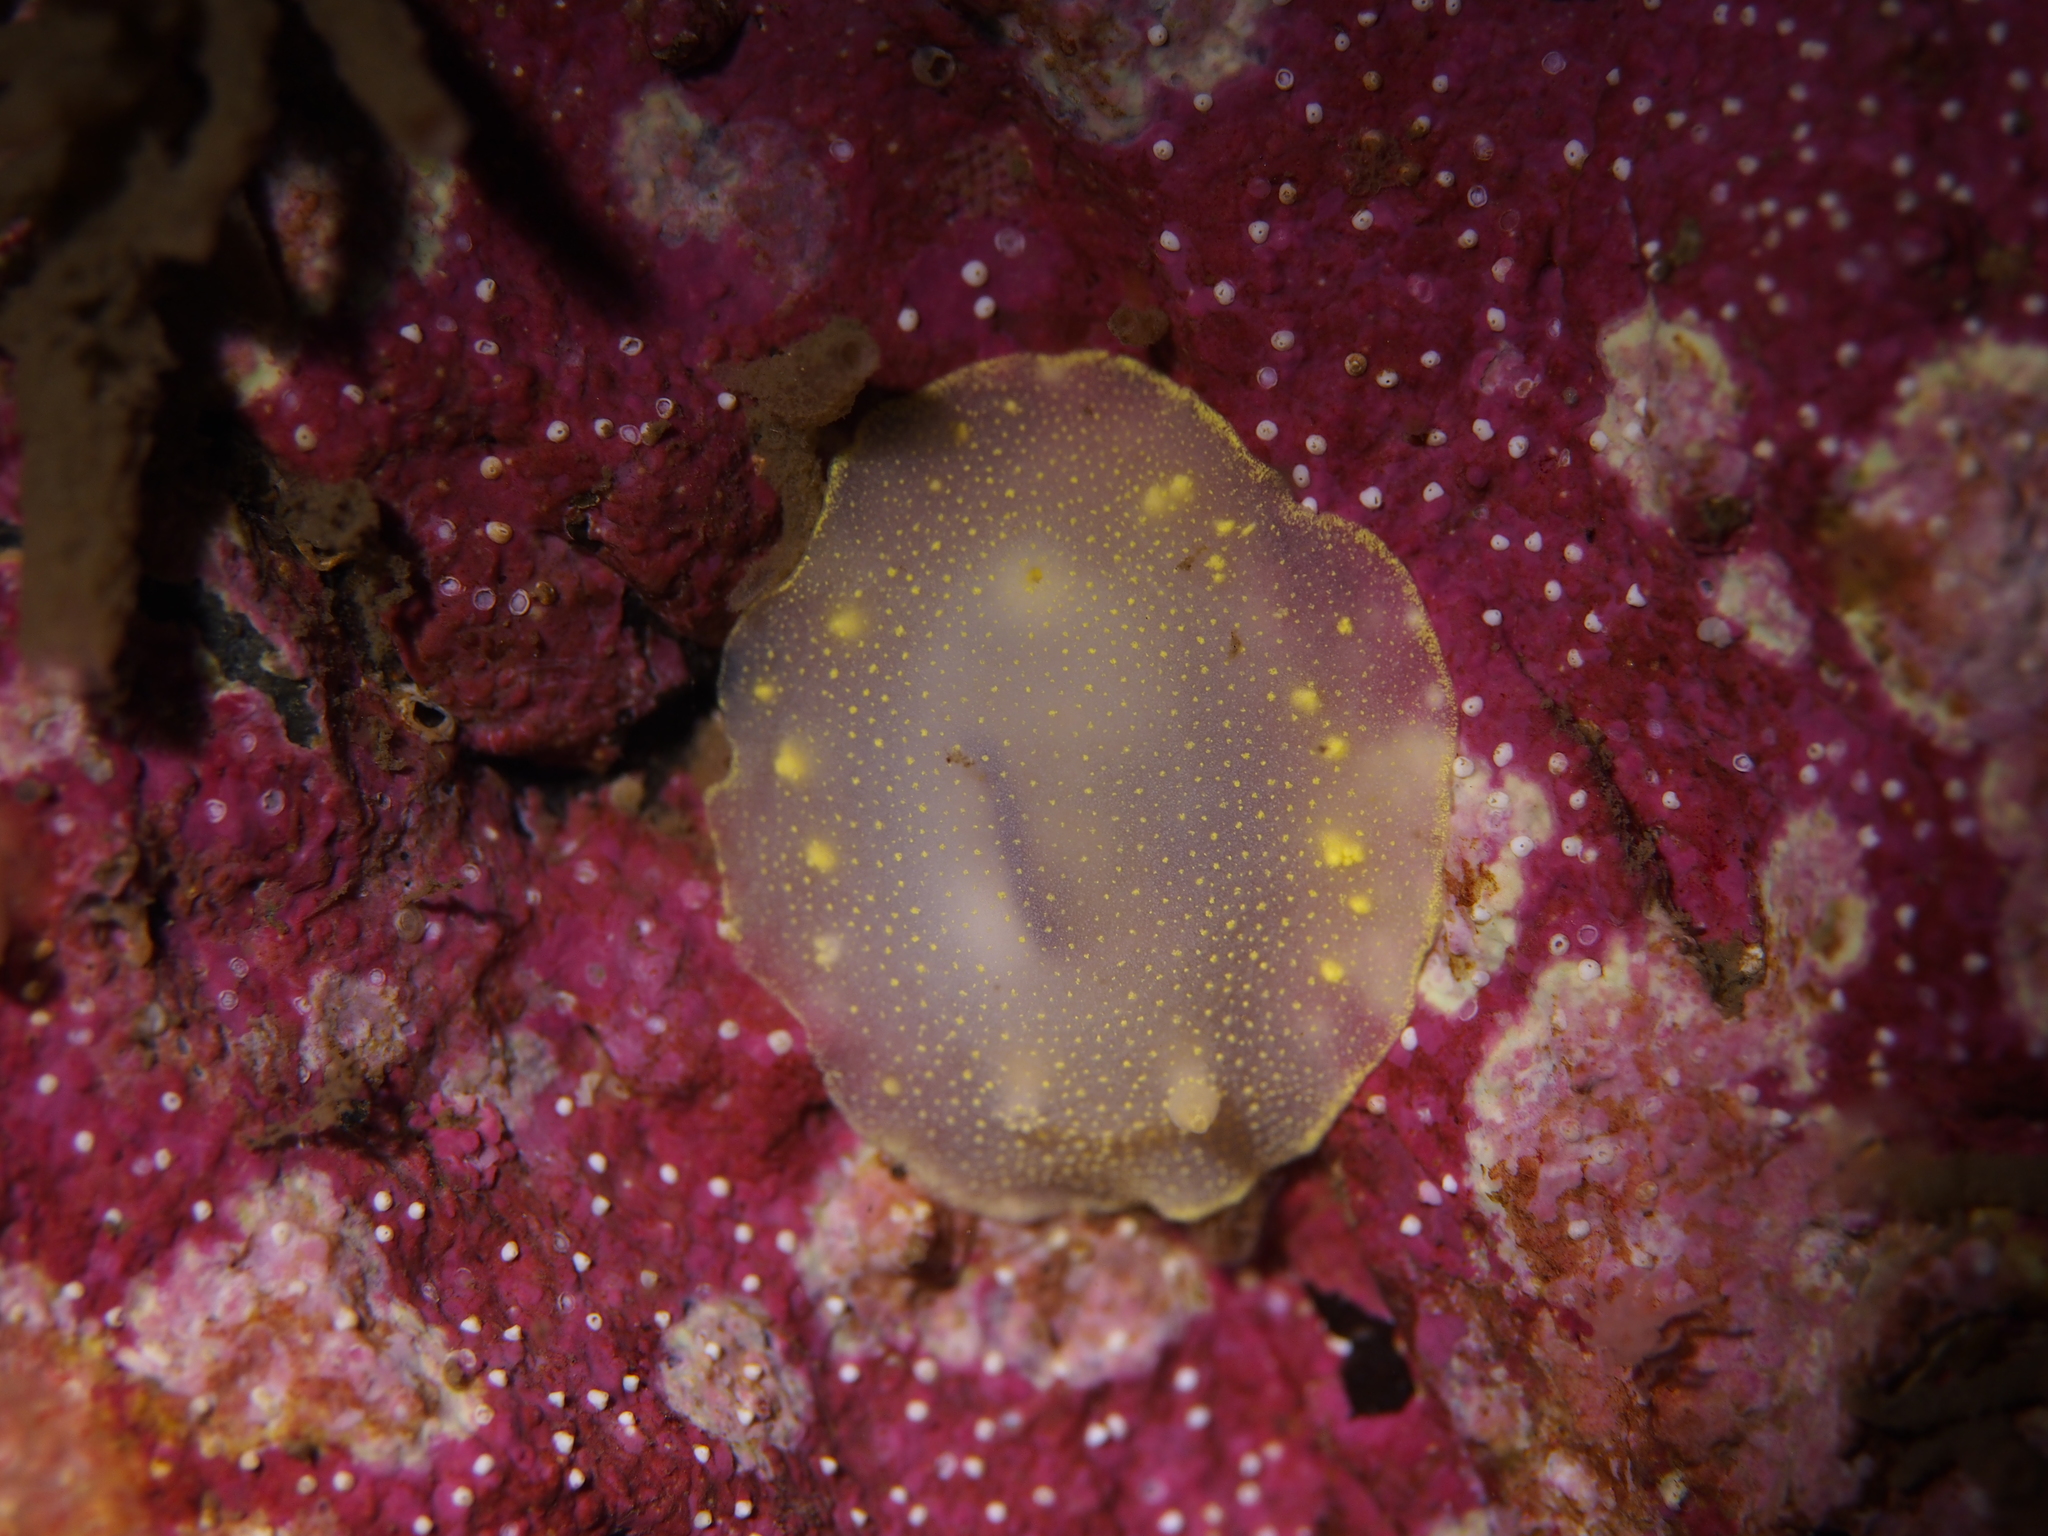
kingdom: Animalia
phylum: Mollusca
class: Gastropoda
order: Nudibranchia
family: Cadlinidae
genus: Cadlina
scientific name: Cadlina laevis
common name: White atlantic cadlina
